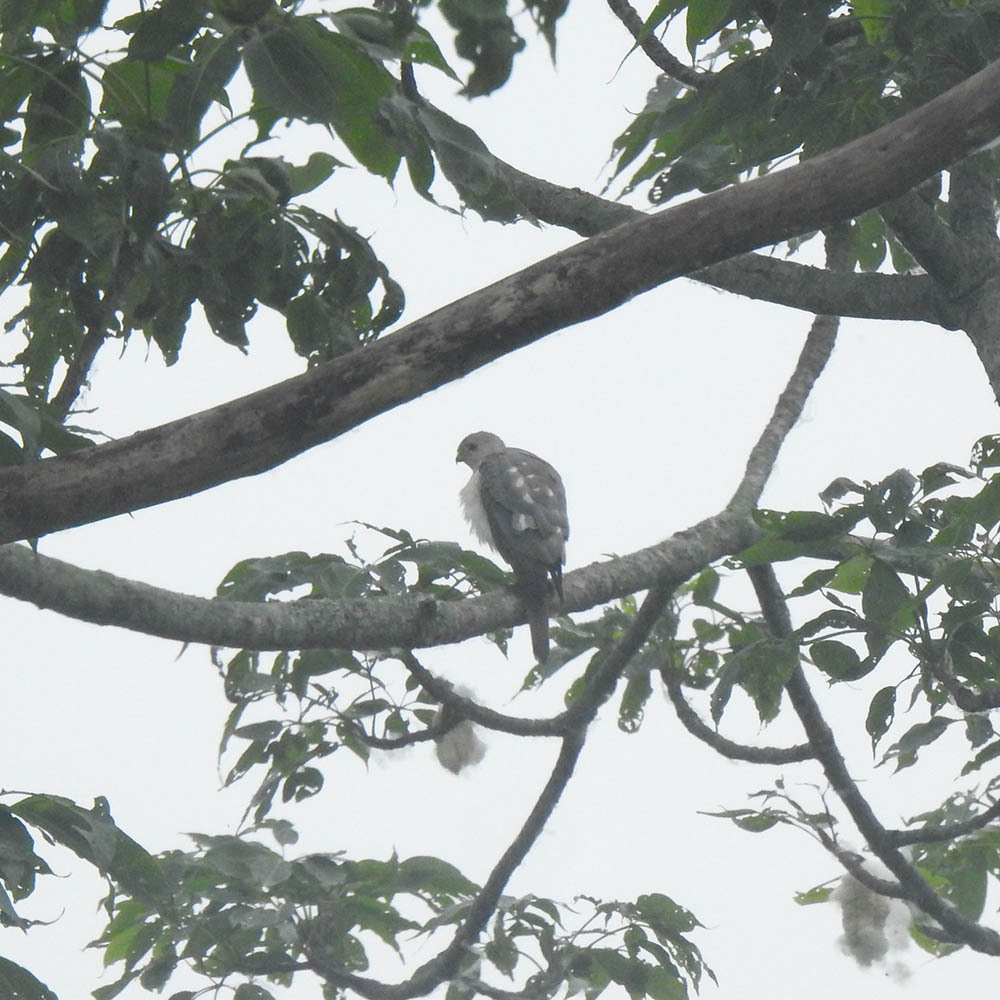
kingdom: Animalia
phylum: Chordata
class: Aves
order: Accipitriformes
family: Accipitridae
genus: Accipiter
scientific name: Accipiter badius
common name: Shikra
